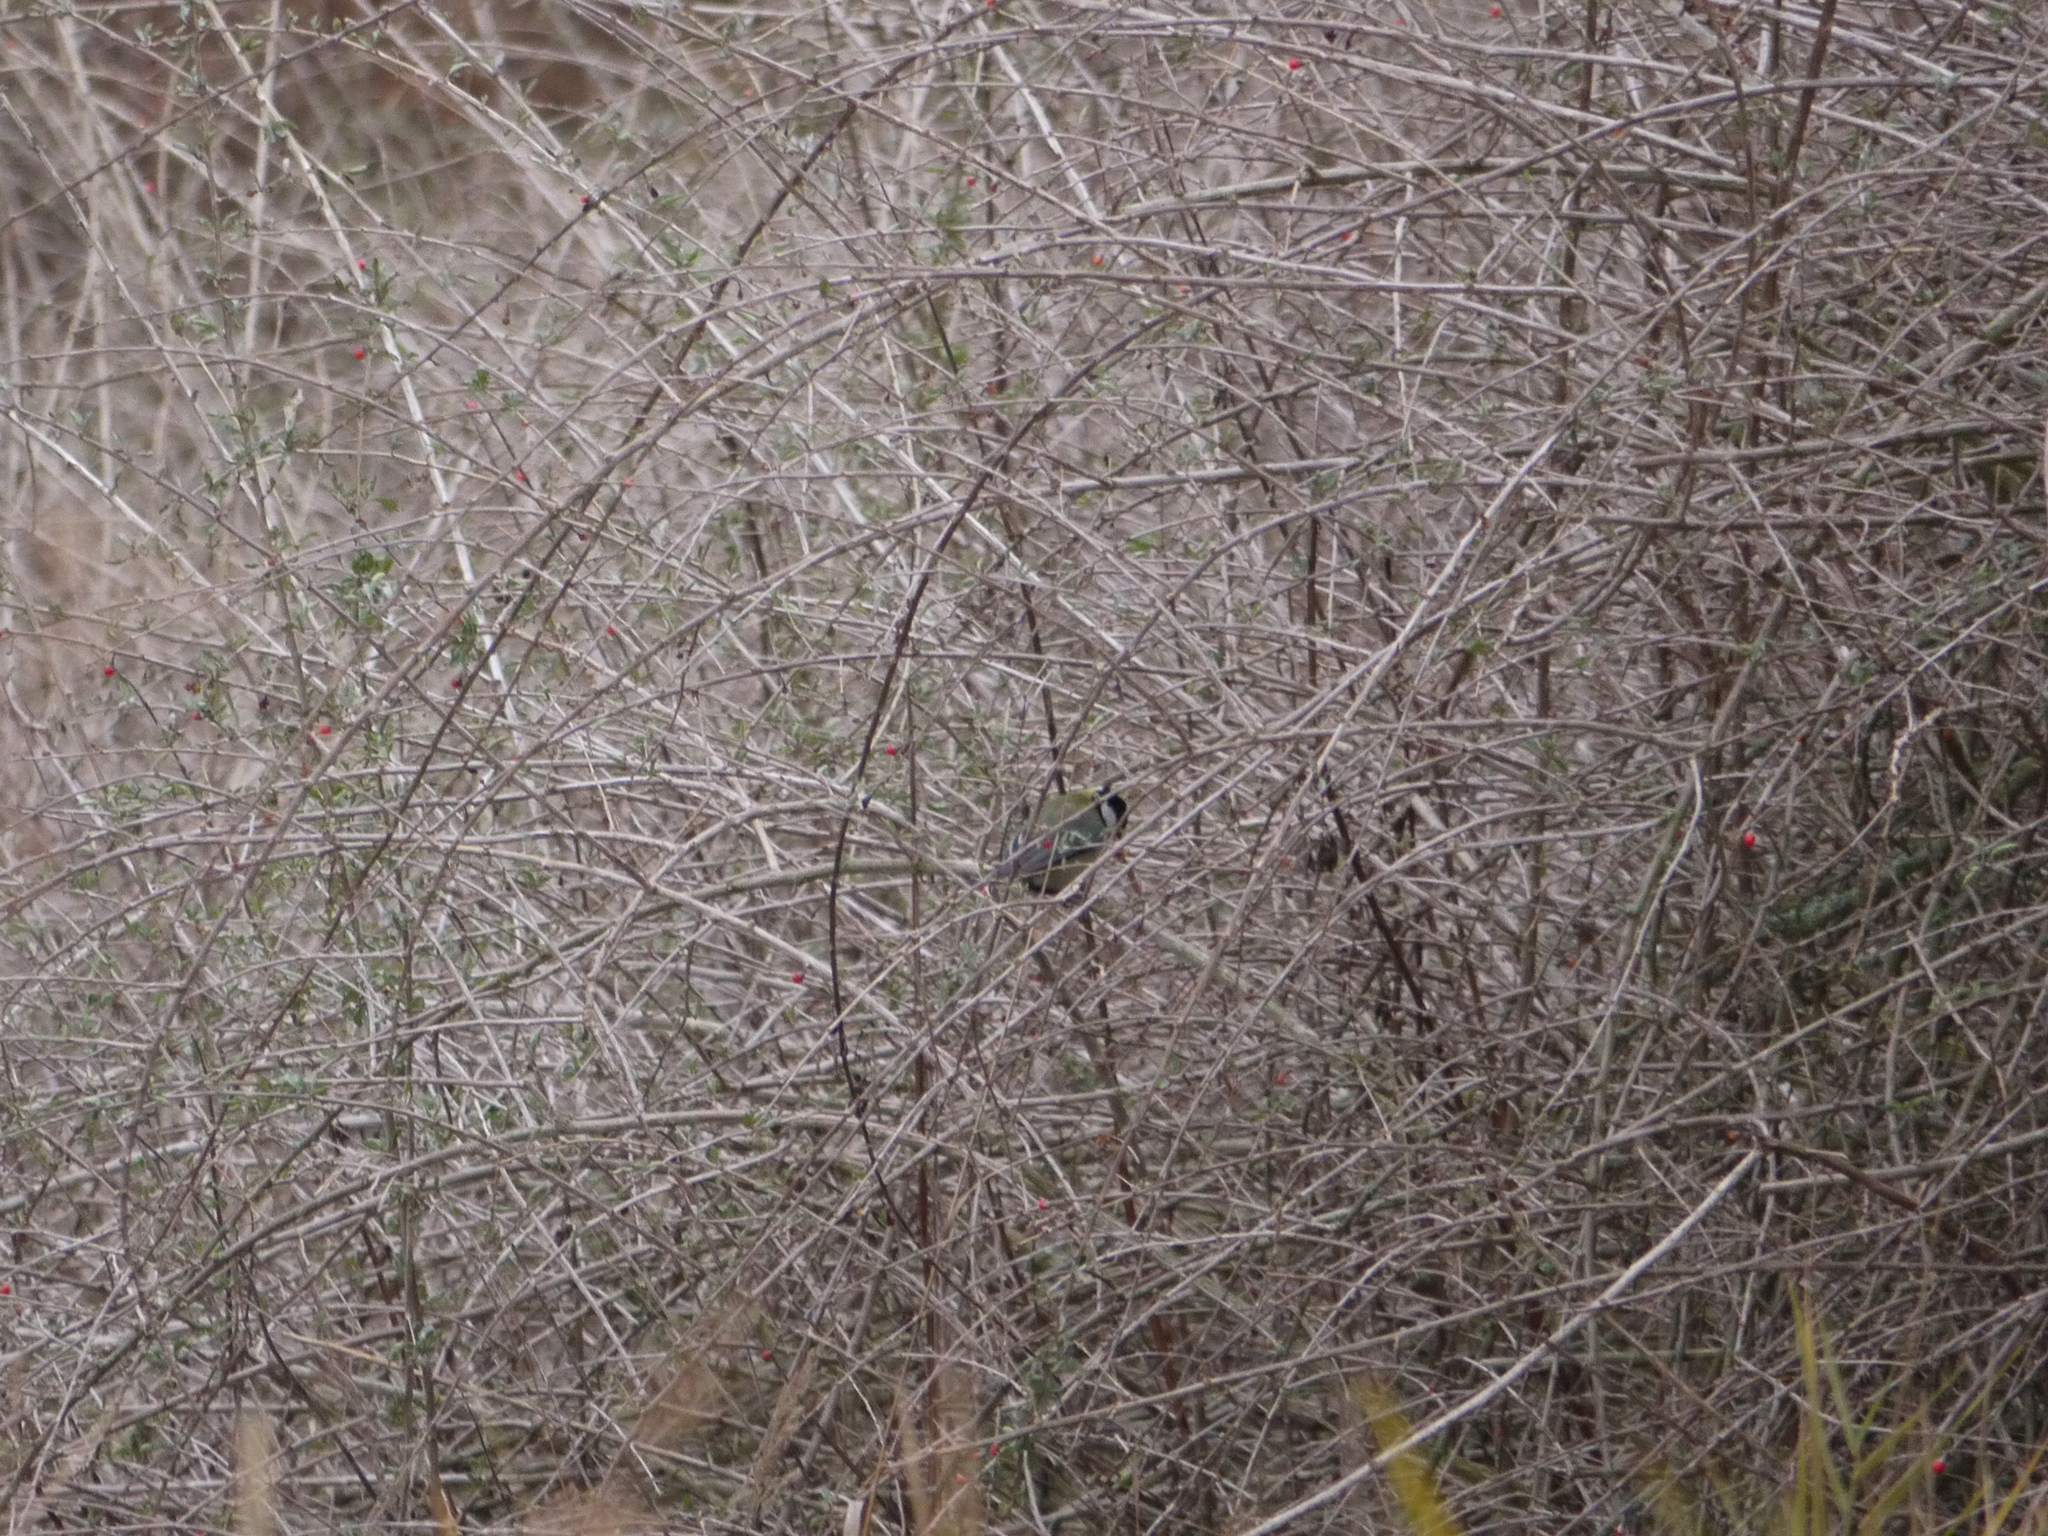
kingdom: Animalia
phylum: Chordata
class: Aves
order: Passeriformes
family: Paridae
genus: Parus
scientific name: Parus major
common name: Great tit
